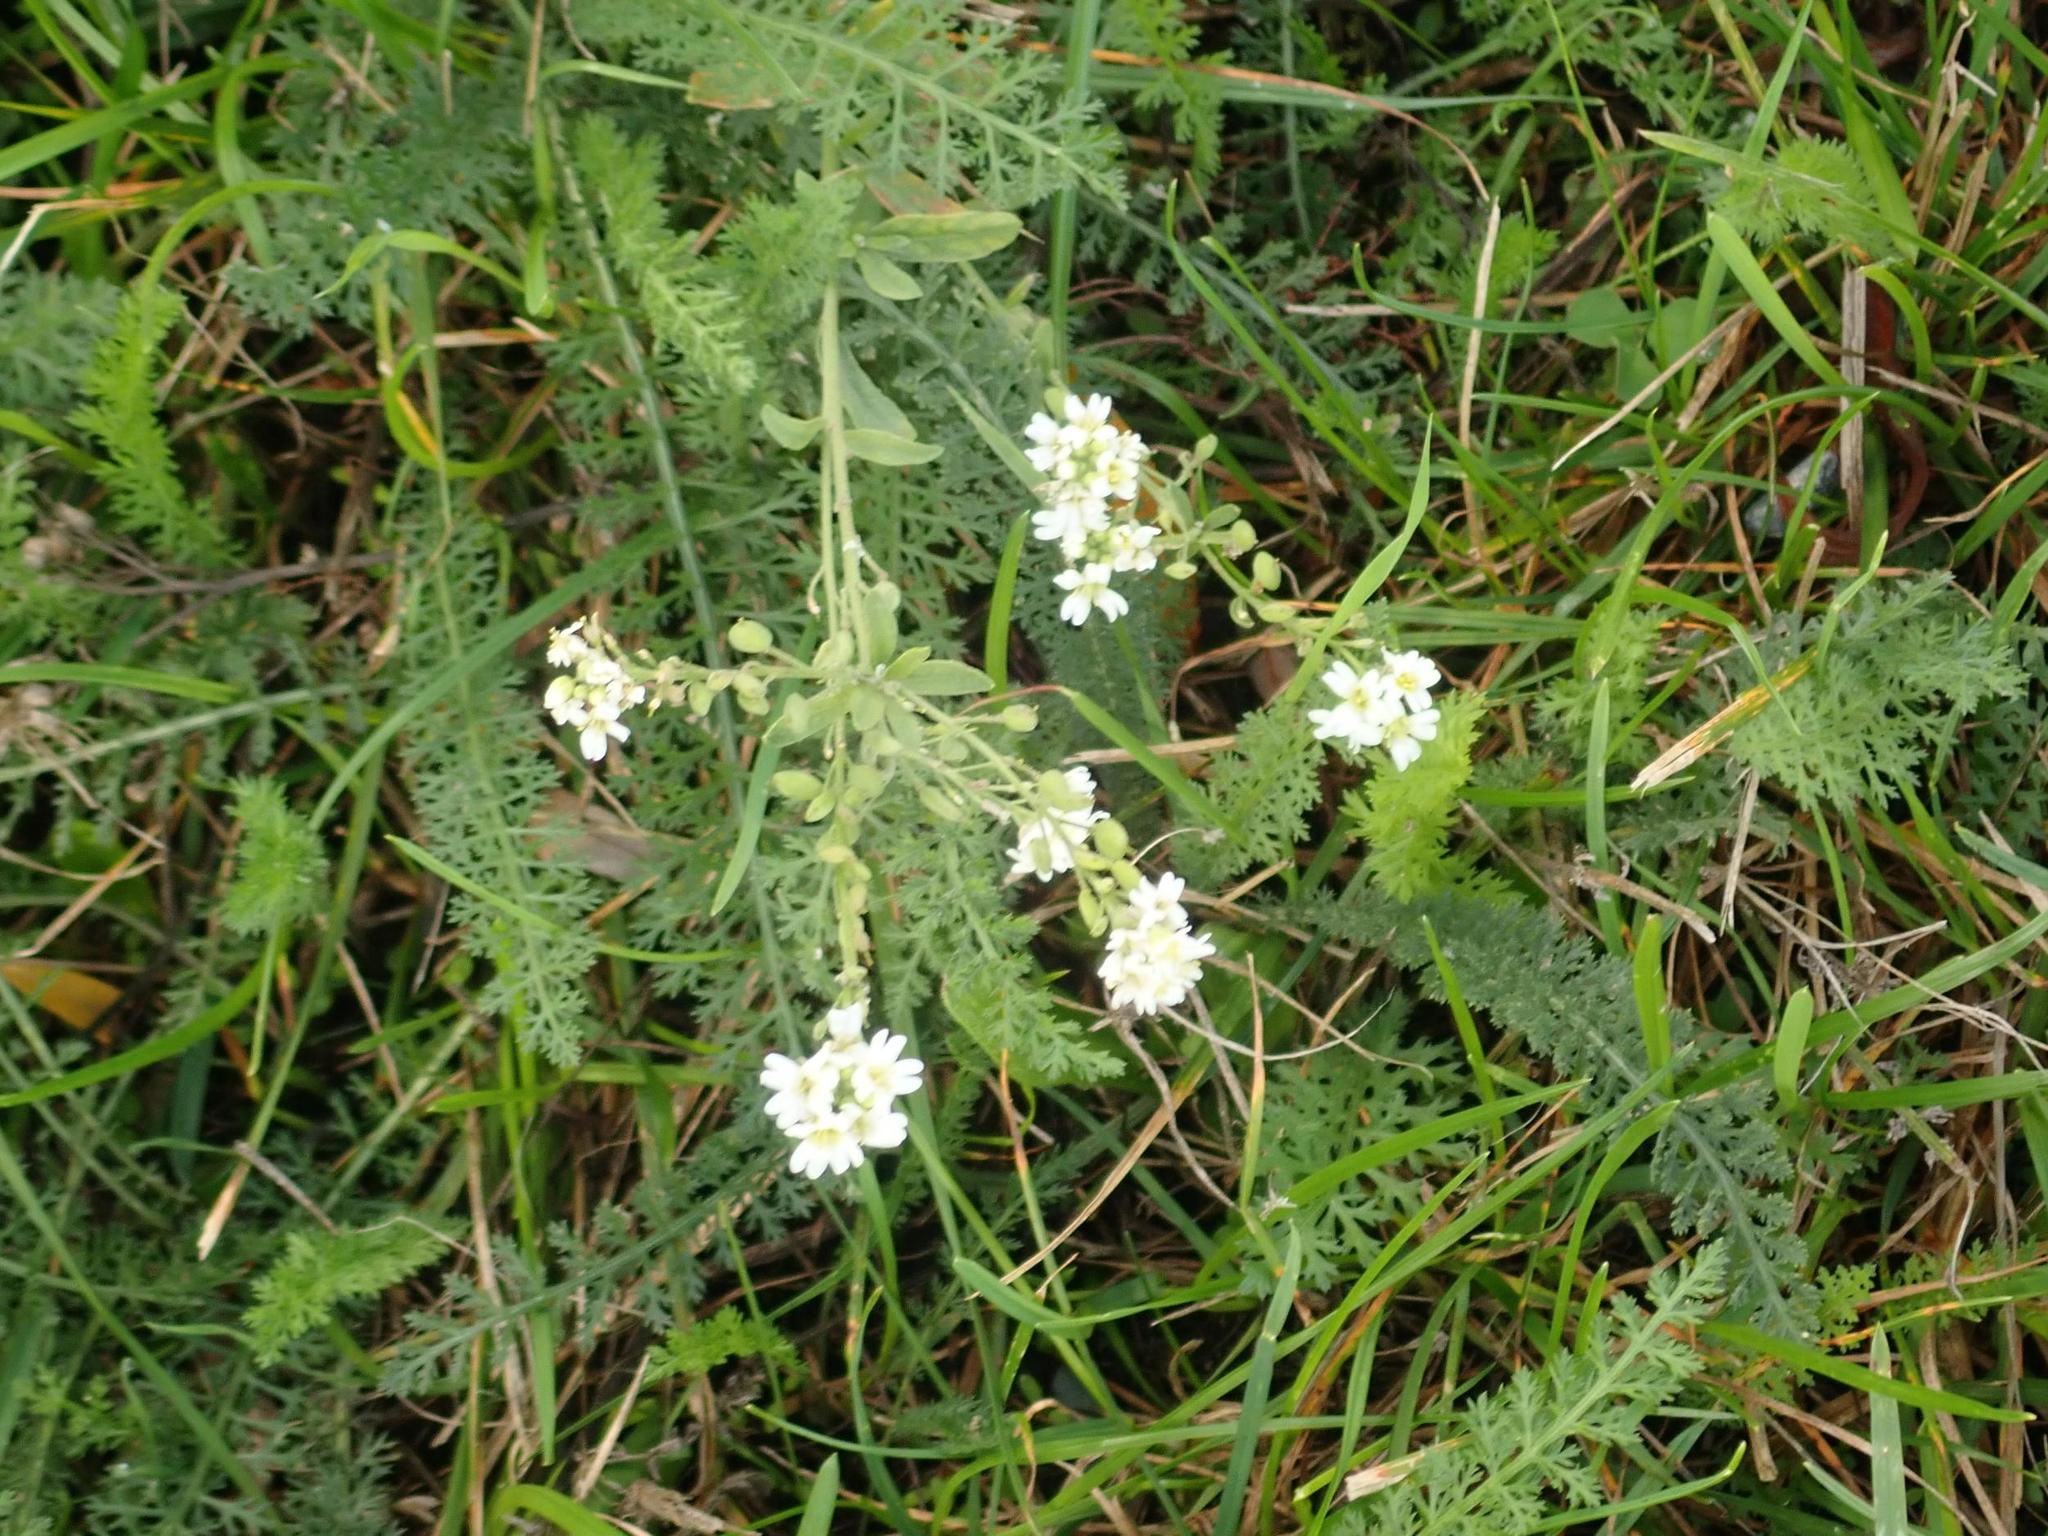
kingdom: Plantae
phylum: Tracheophyta
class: Magnoliopsida
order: Brassicales
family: Brassicaceae
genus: Berteroa
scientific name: Berteroa incana
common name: Hoary alison
